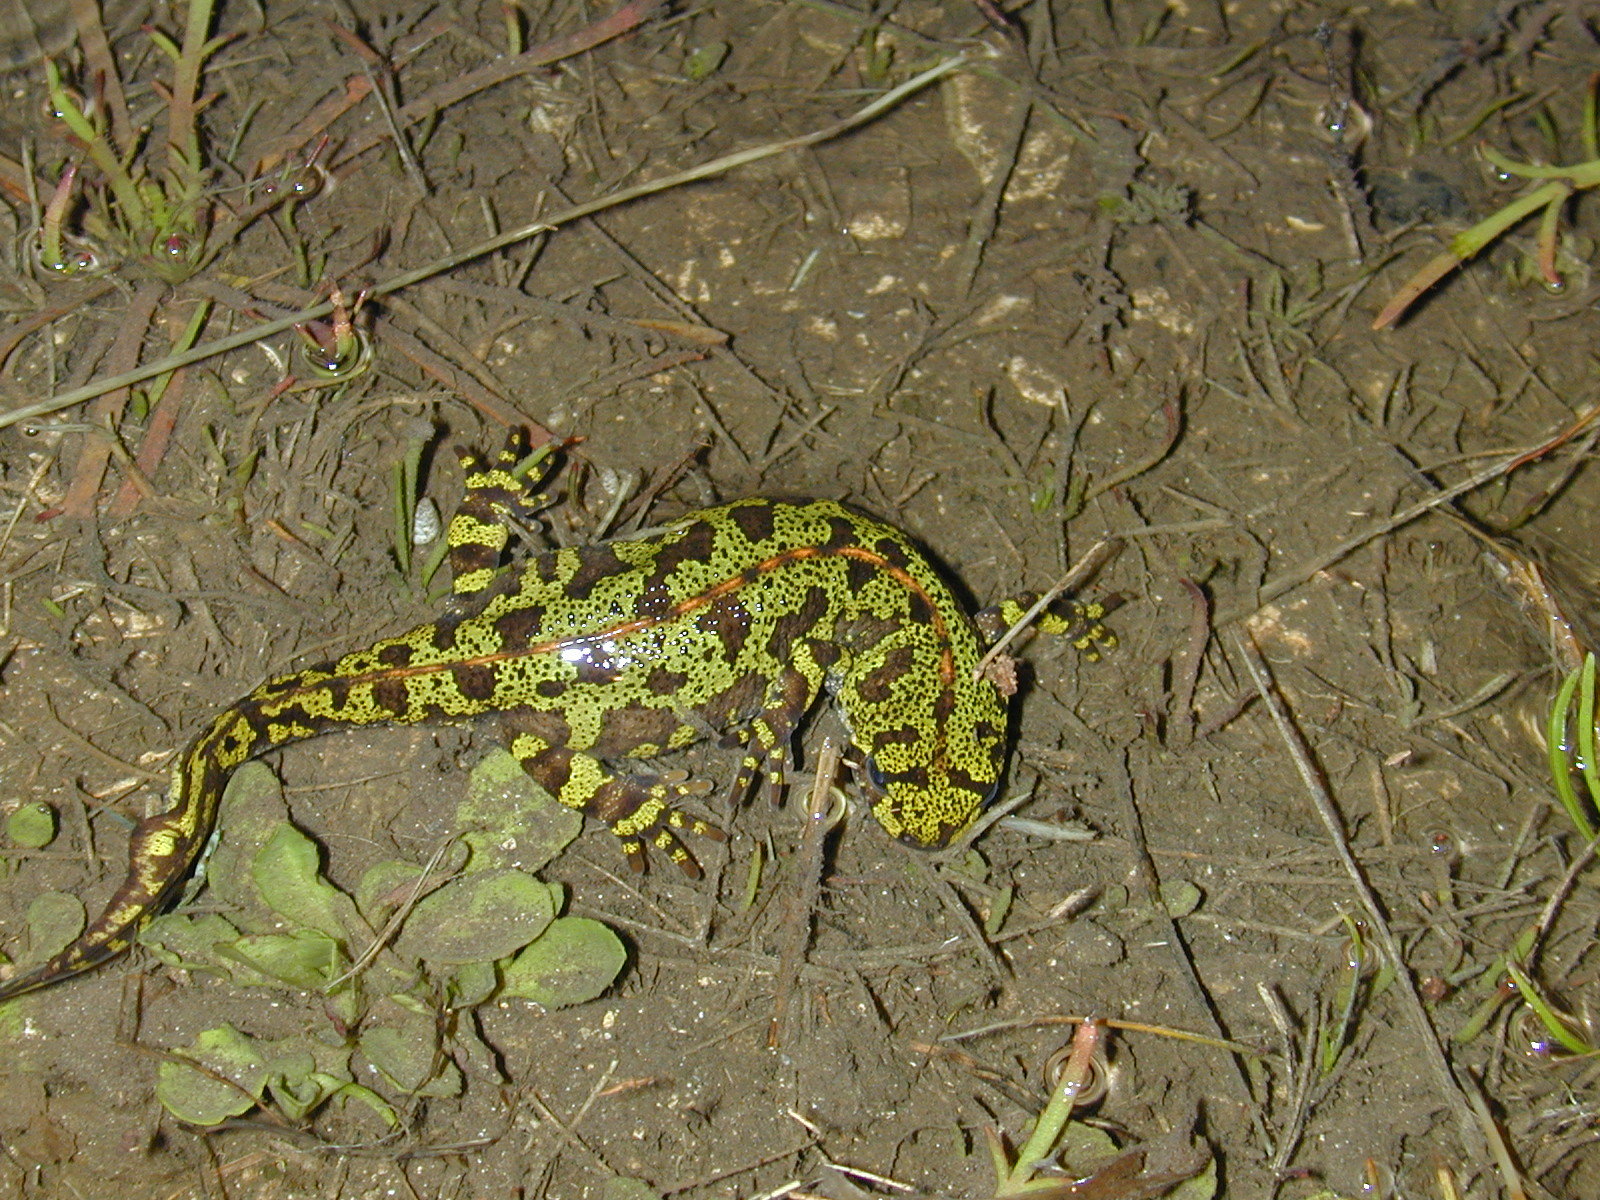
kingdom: Animalia
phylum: Chordata
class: Amphibia
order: Caudata
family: Salamandridae
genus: Triturus
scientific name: Triturus marmoratus
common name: Marbled newt
